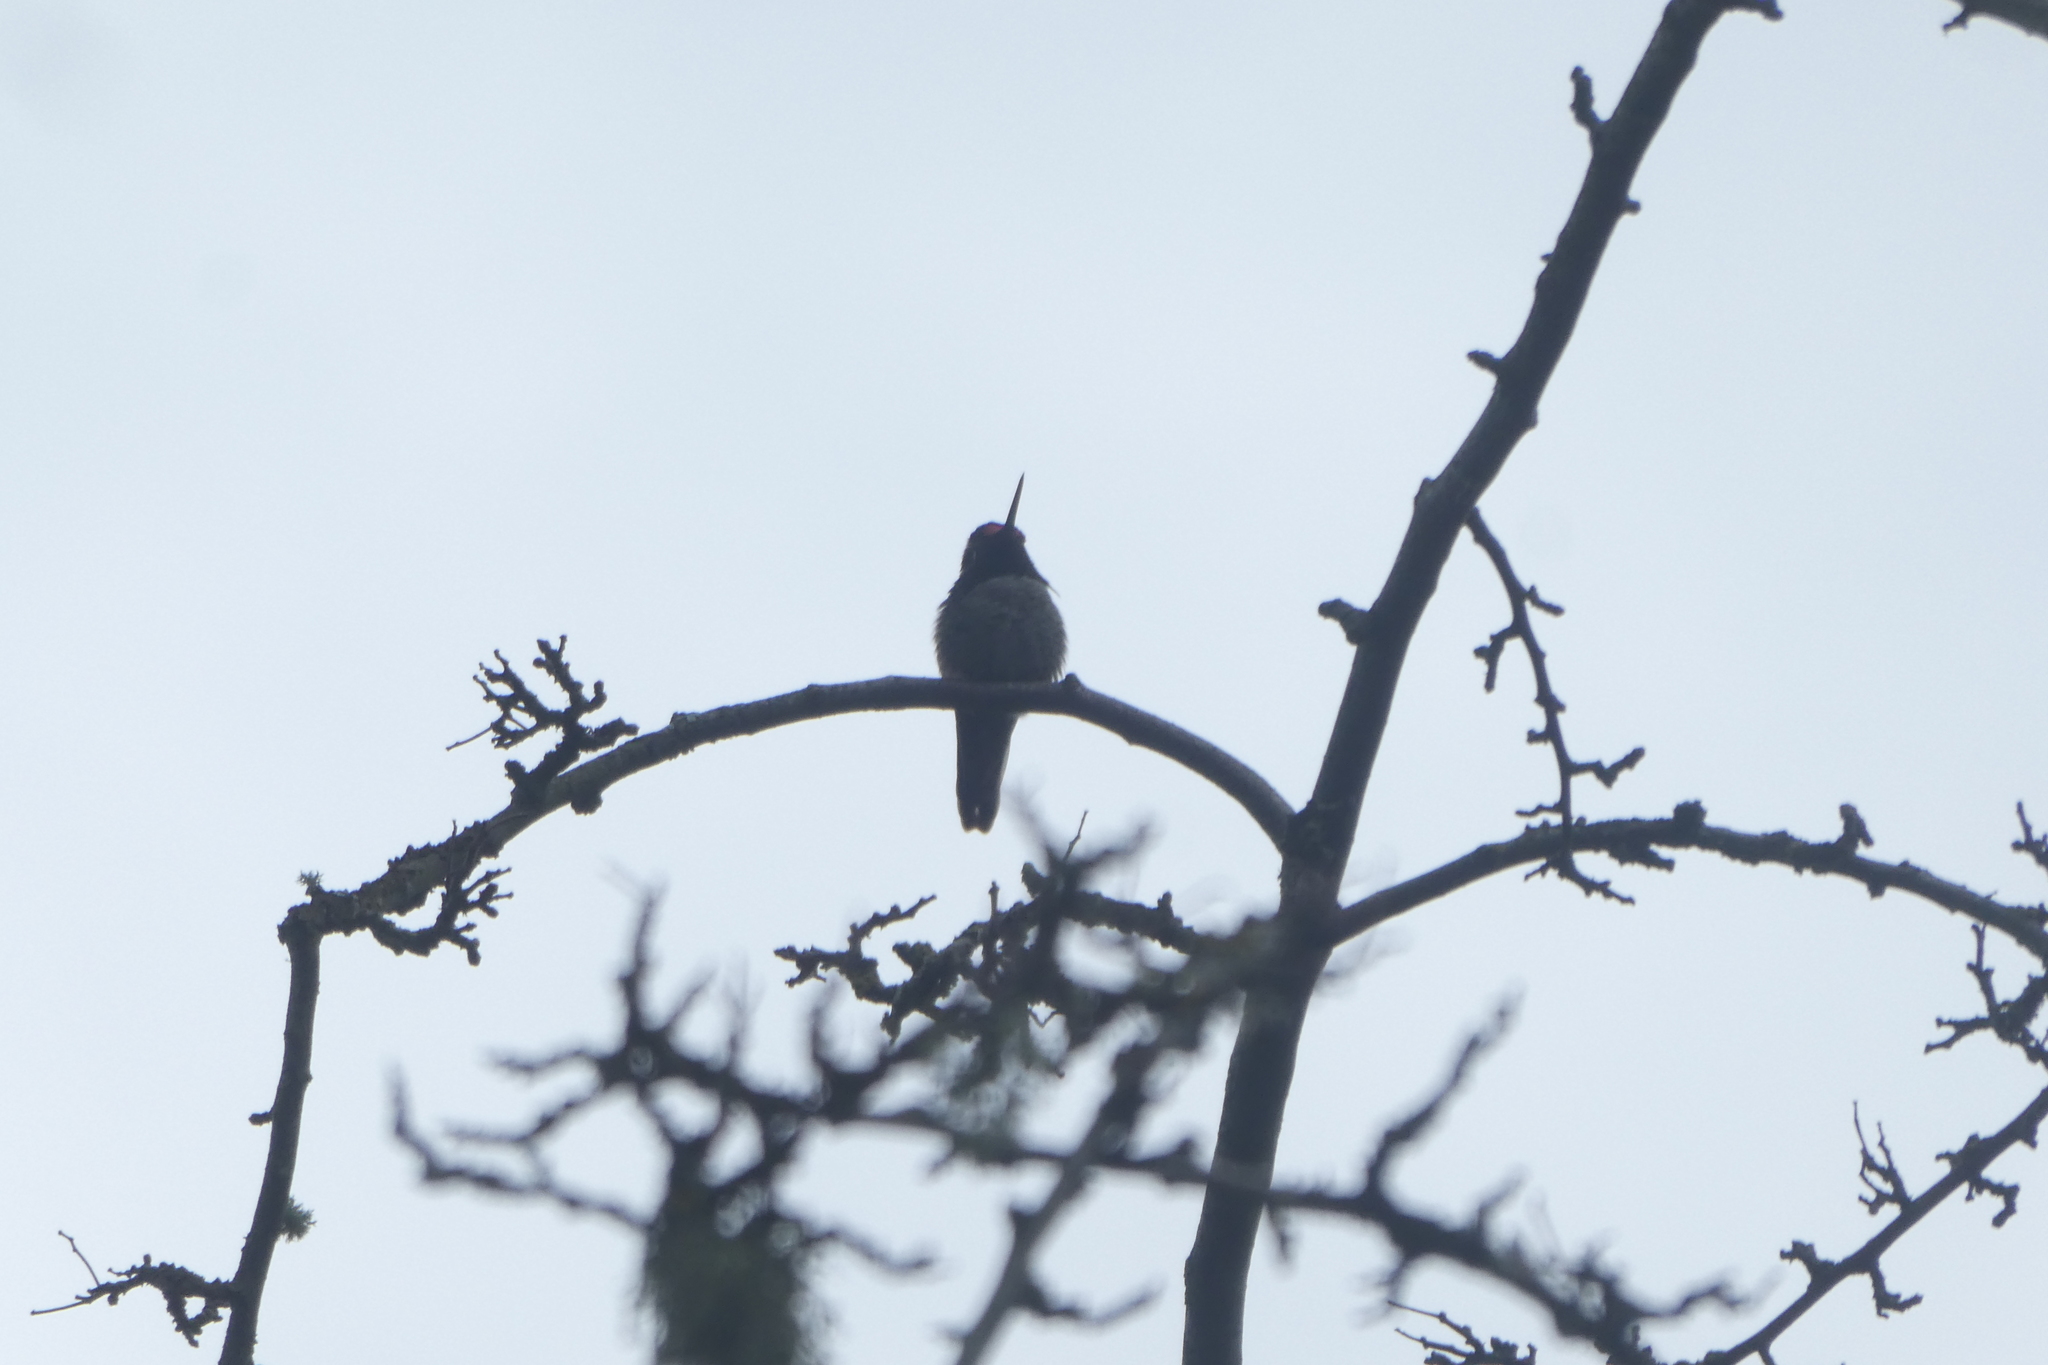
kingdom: Animalia
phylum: Chordata
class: Aves
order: Apodiformes
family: Trochilidae
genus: Calypte
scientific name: Calypte anna
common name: Anna's hummingbird
